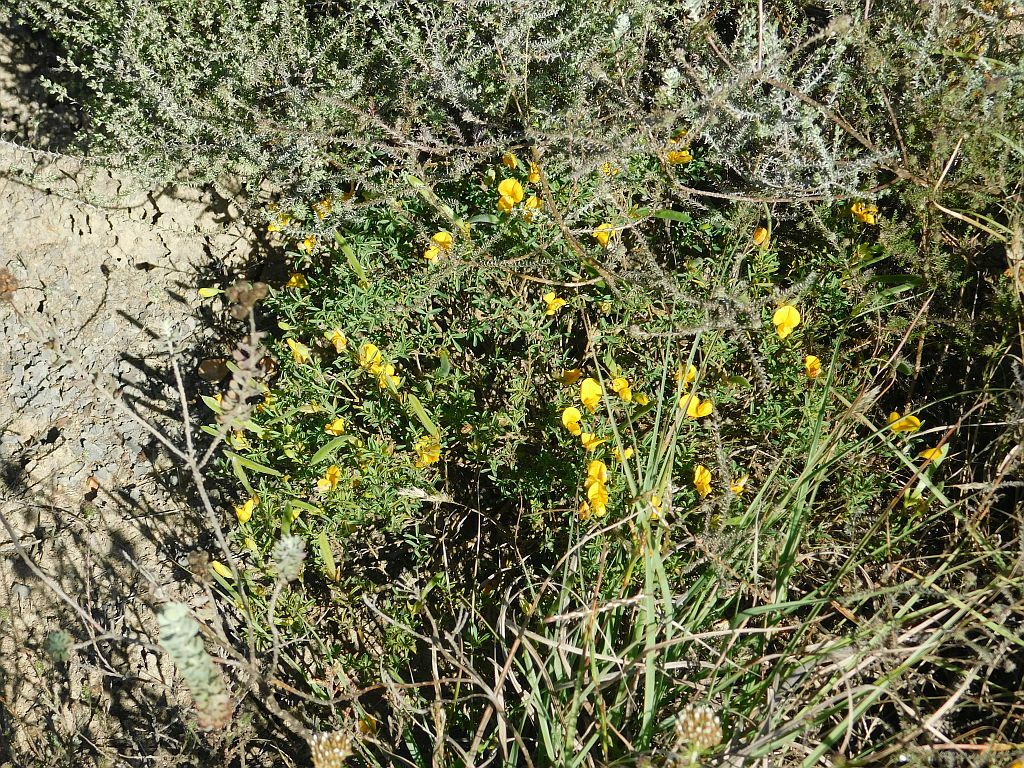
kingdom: Plantae
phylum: Tracheophyta
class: Magnoliopsida
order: Fabales
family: Fabaceae
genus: Argyrolobium
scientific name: Argyrolobium pachyphyllum
